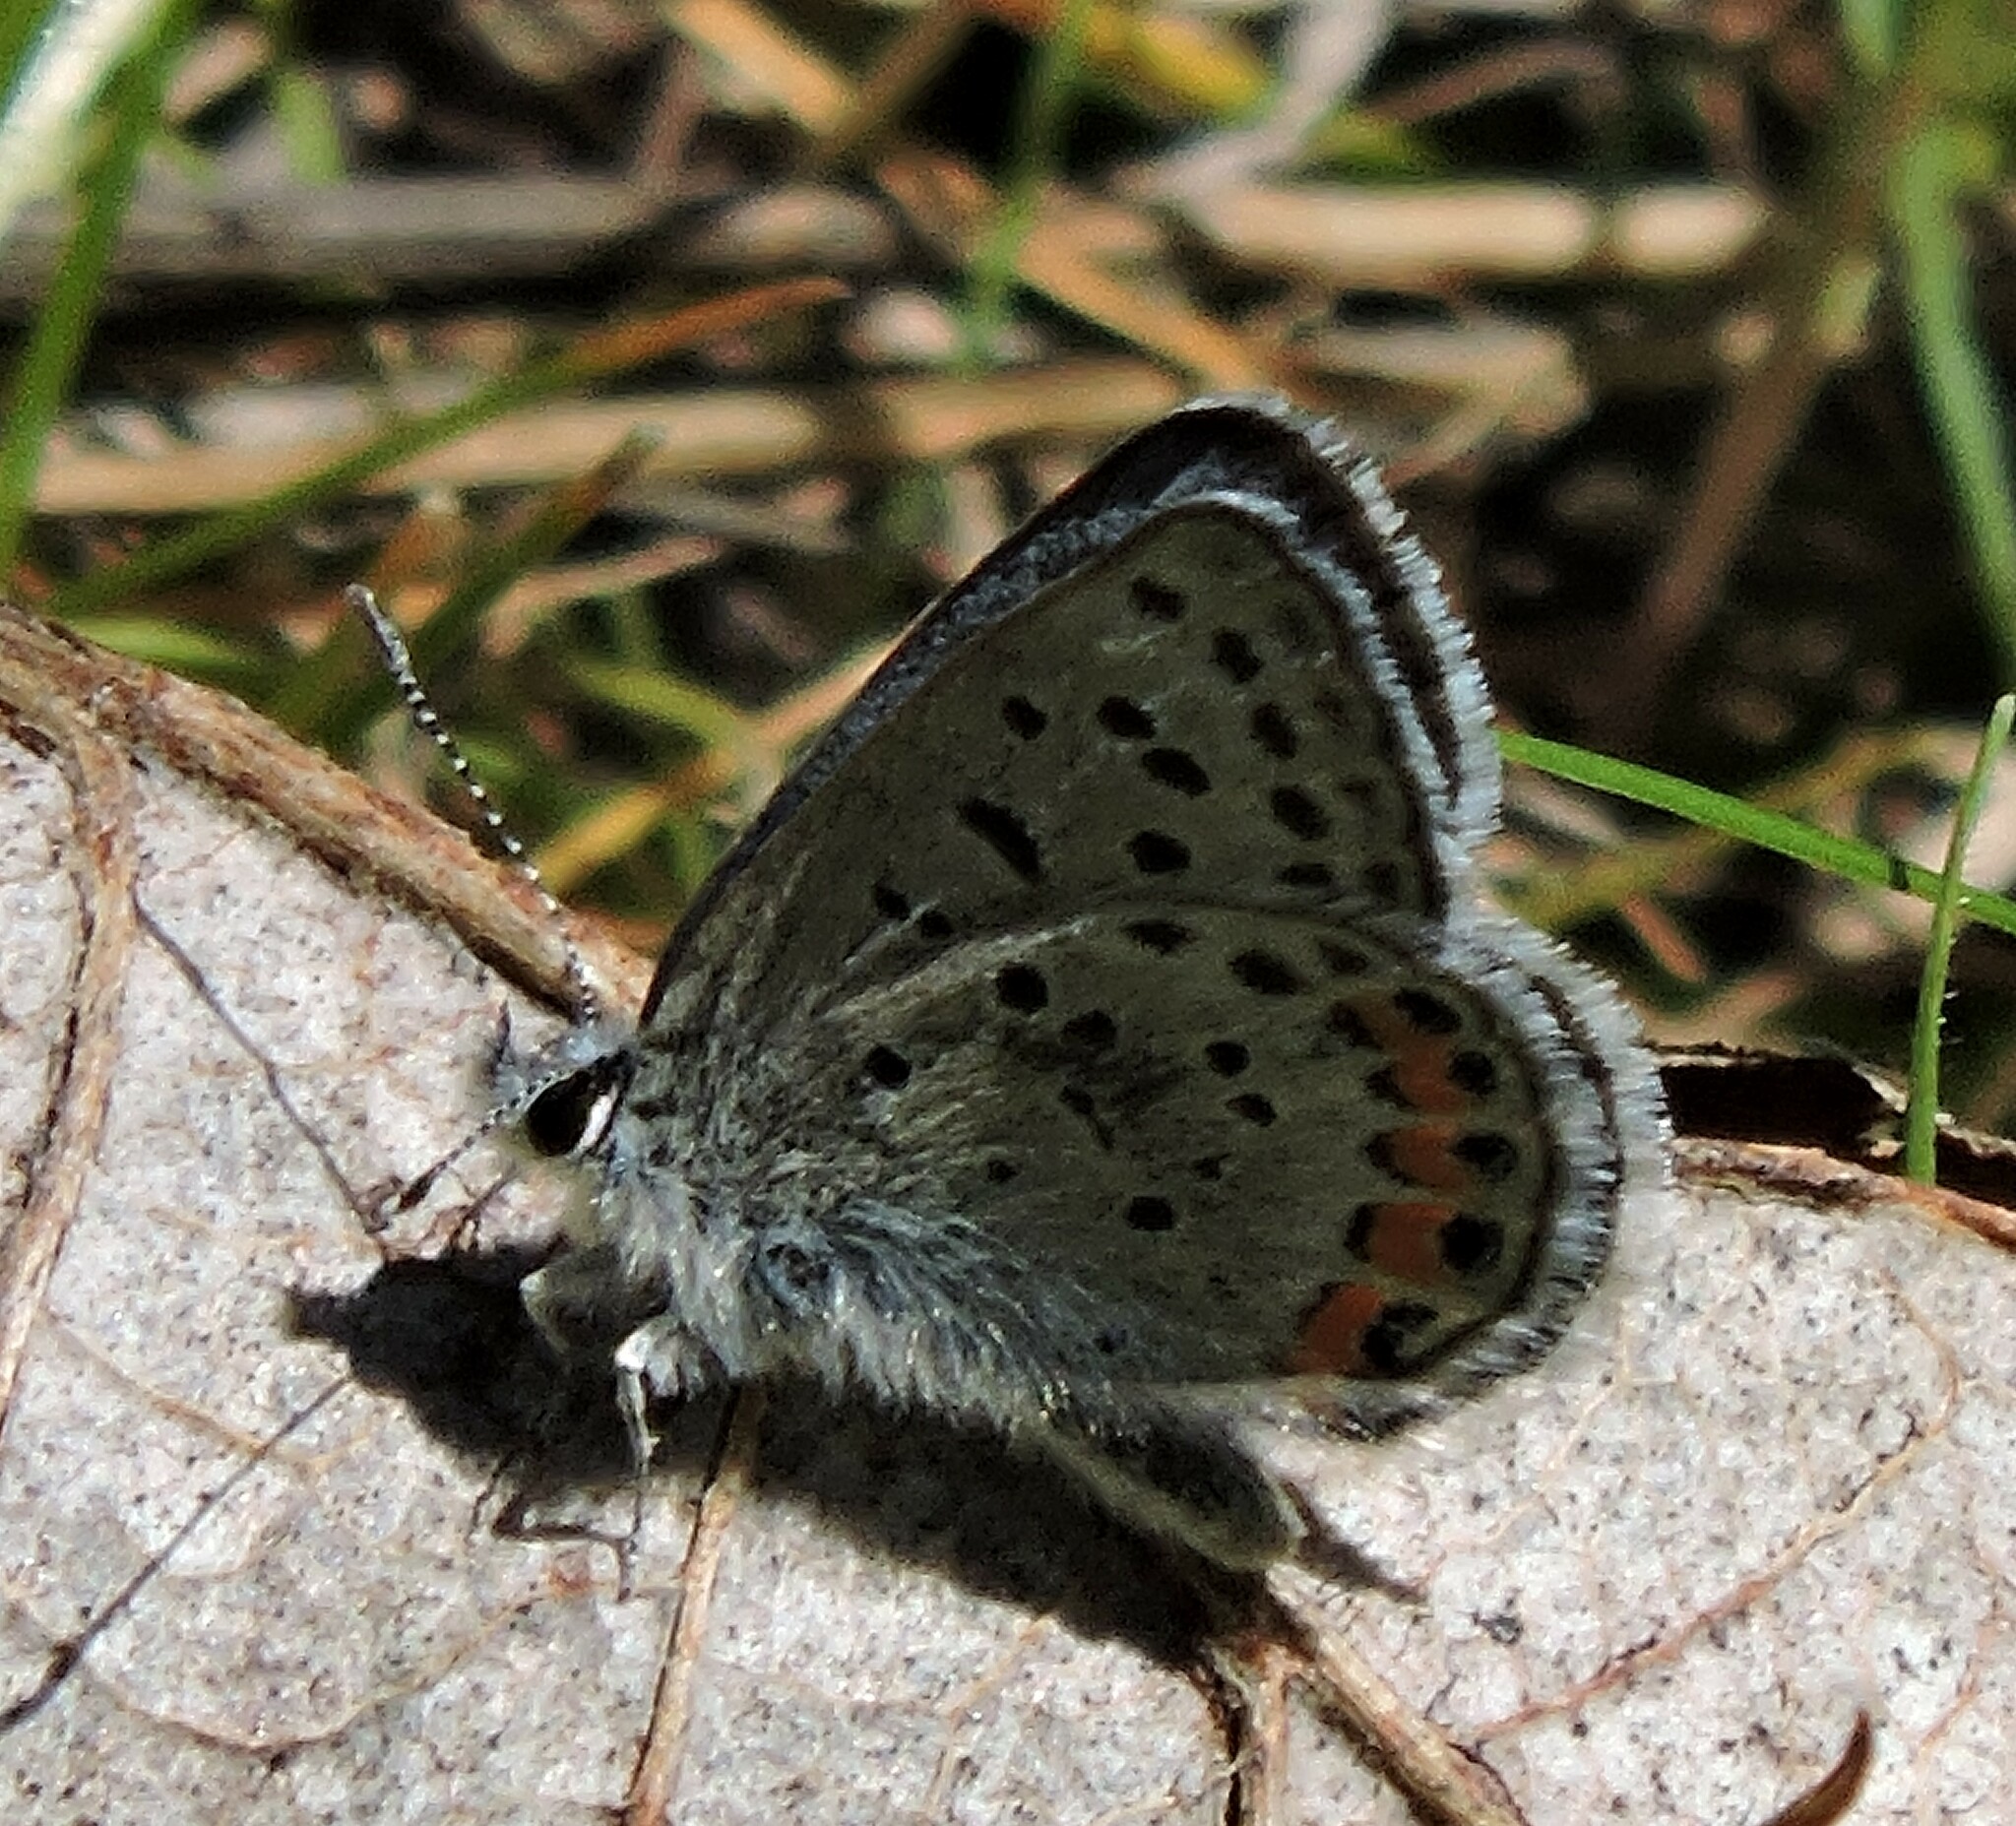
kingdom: Animalia
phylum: Arthropoda
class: Insecta
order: Lepidoptera
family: Lycaenidae
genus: Icaricia
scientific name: Icaricia acmon
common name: Acmon blue
